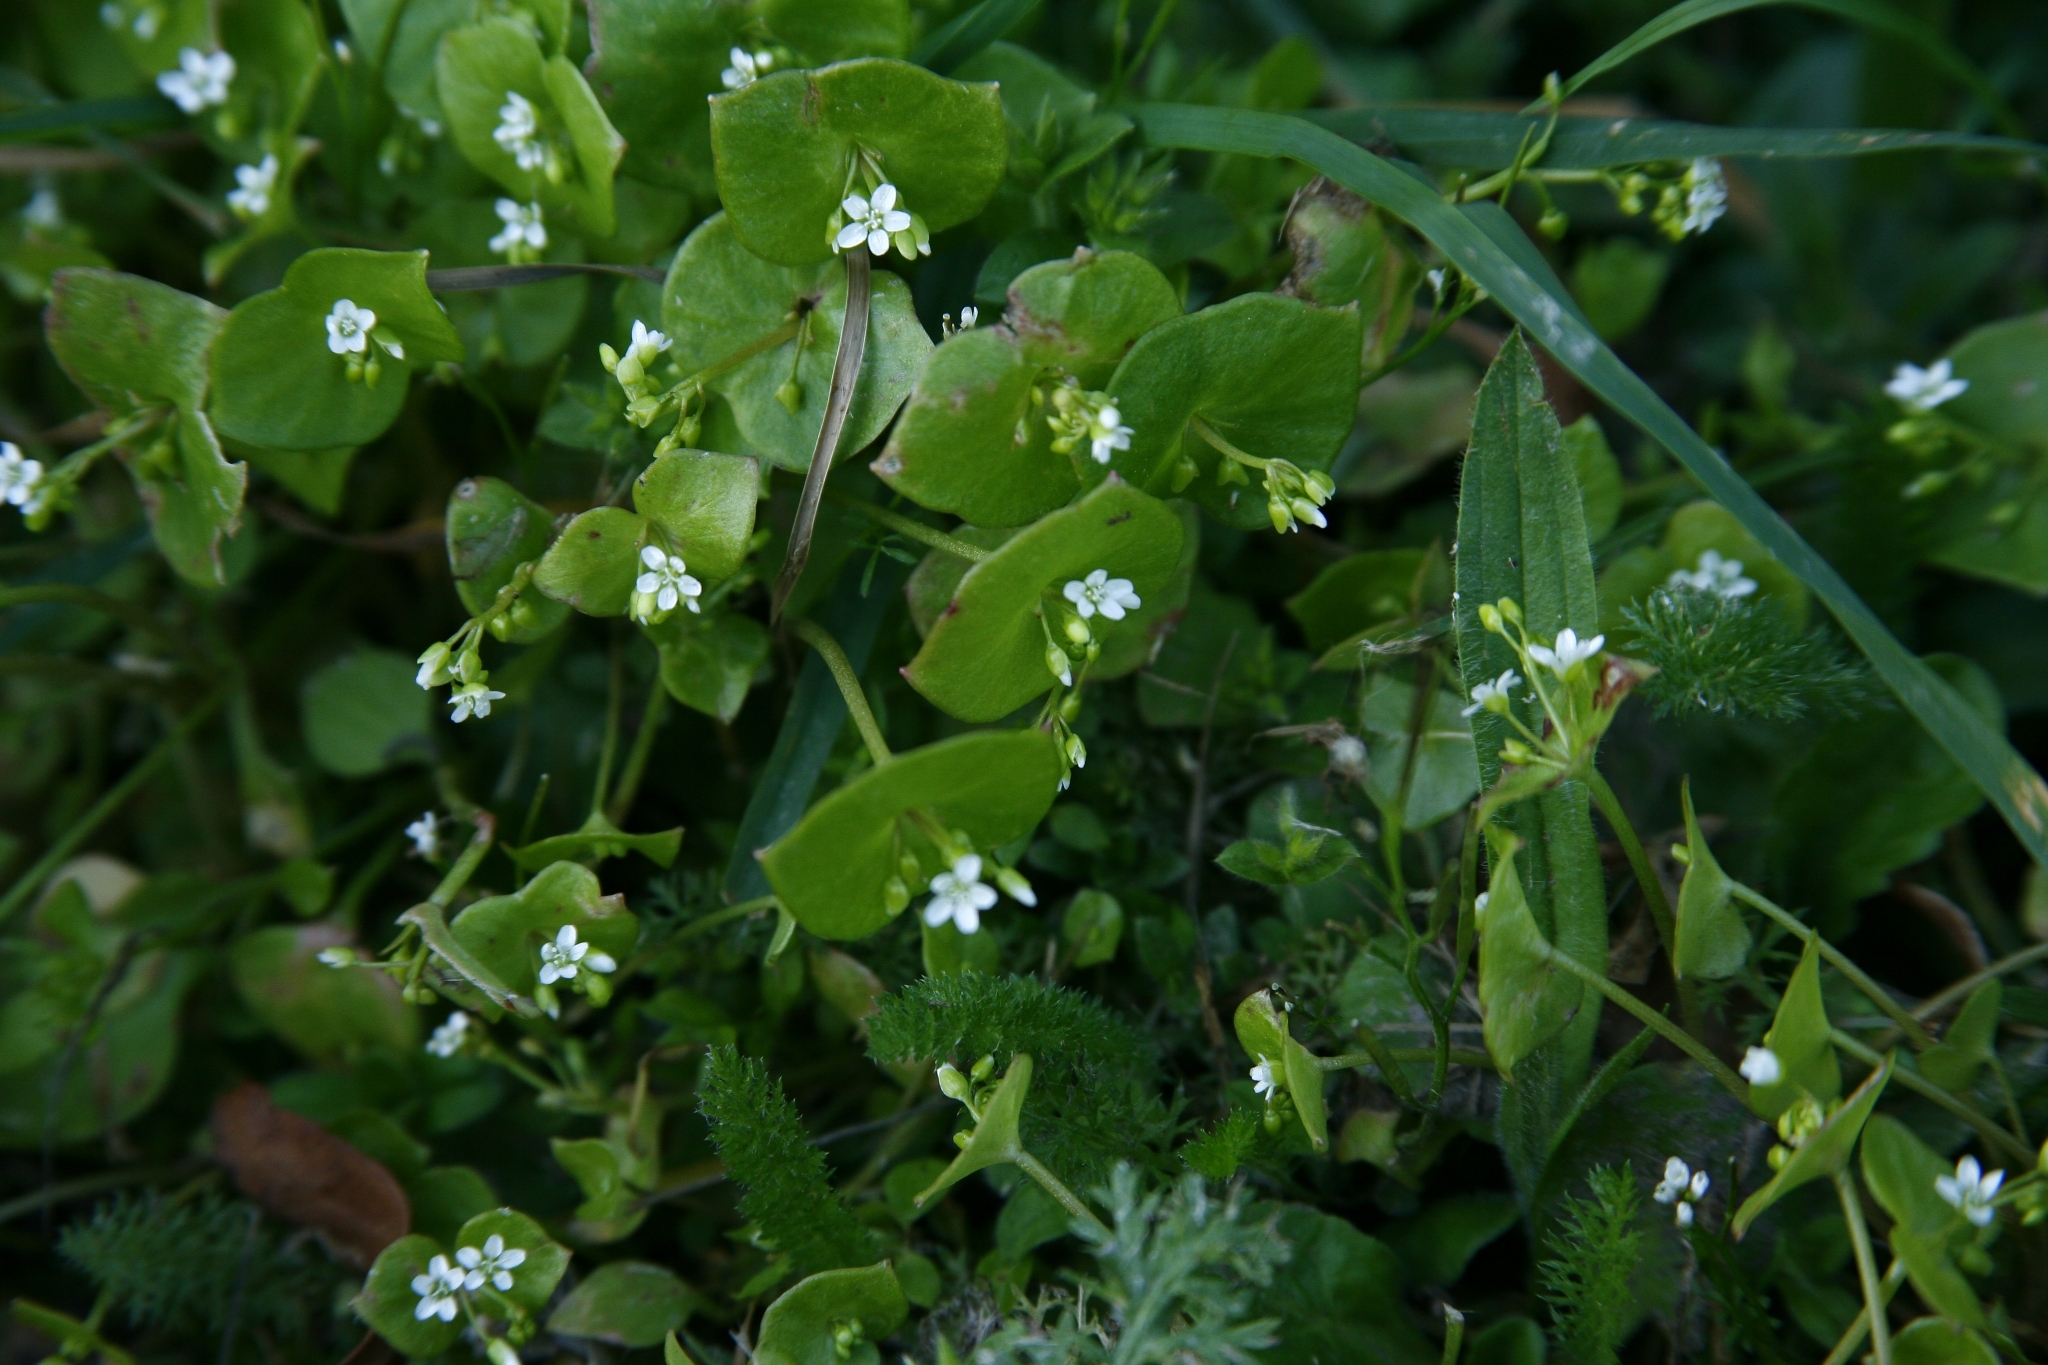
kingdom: Plantae
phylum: Tracheophyta
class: Magnoliopsida
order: Caryophyllales
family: Montiaceae
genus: Claytonia
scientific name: Claytonia perfoliata
